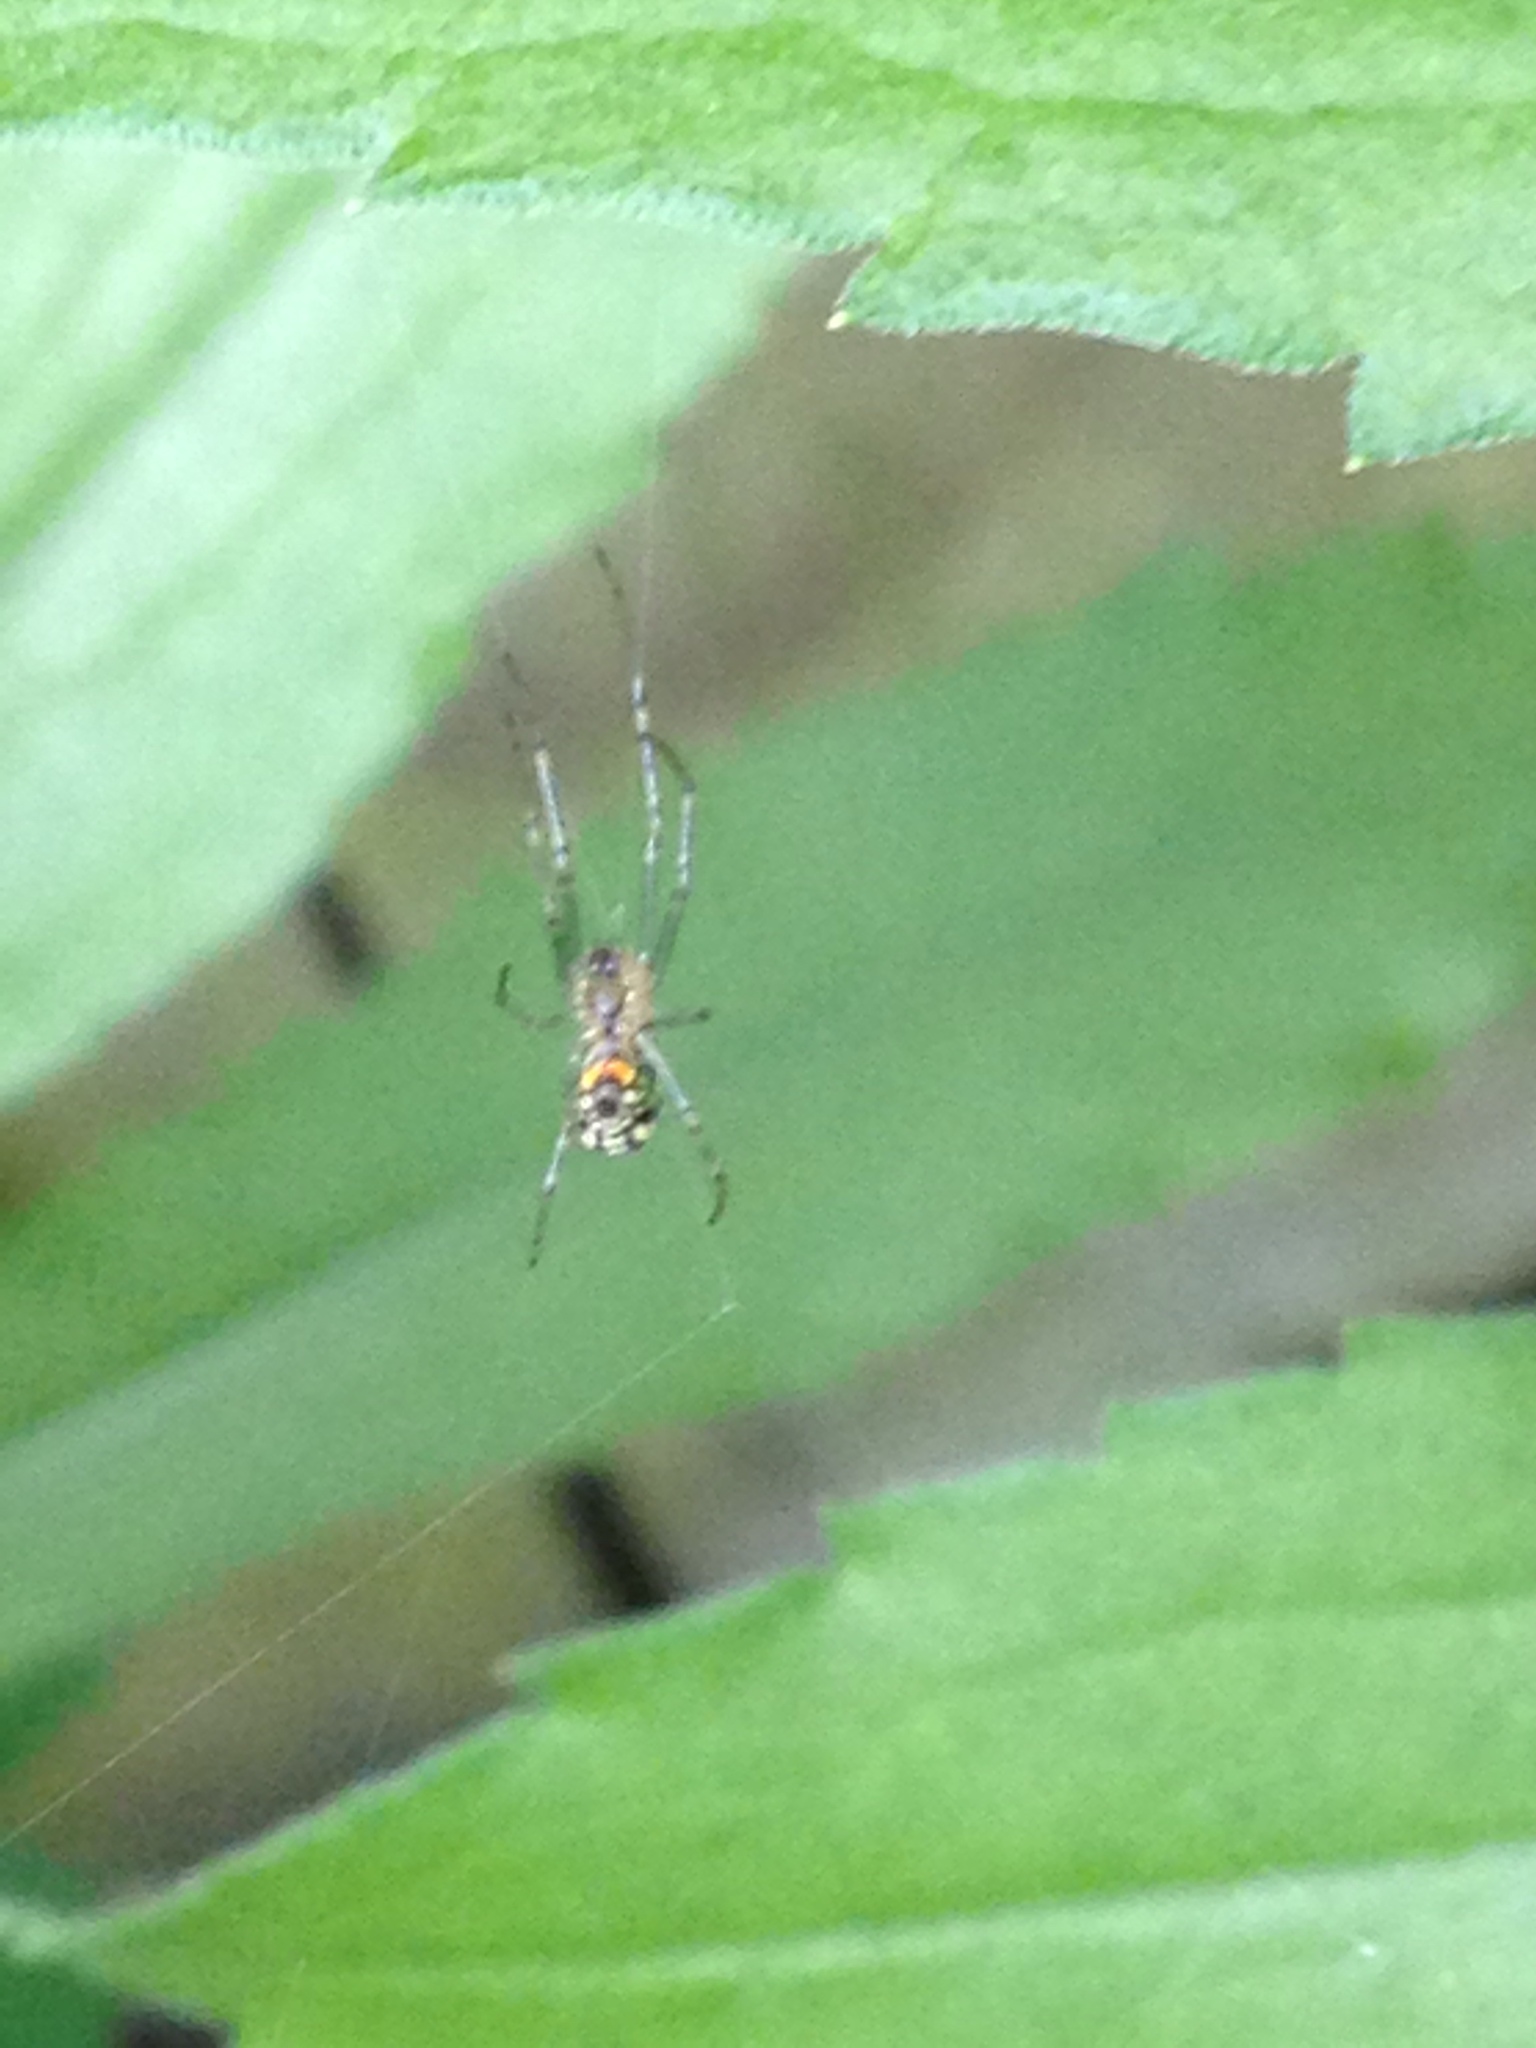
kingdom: Animalia
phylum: Arthropoda
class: Arachnida
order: Araneae
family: Tetragnathidae
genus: Leucauge
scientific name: Leucauge venusta
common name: Longjawed orb weavers
